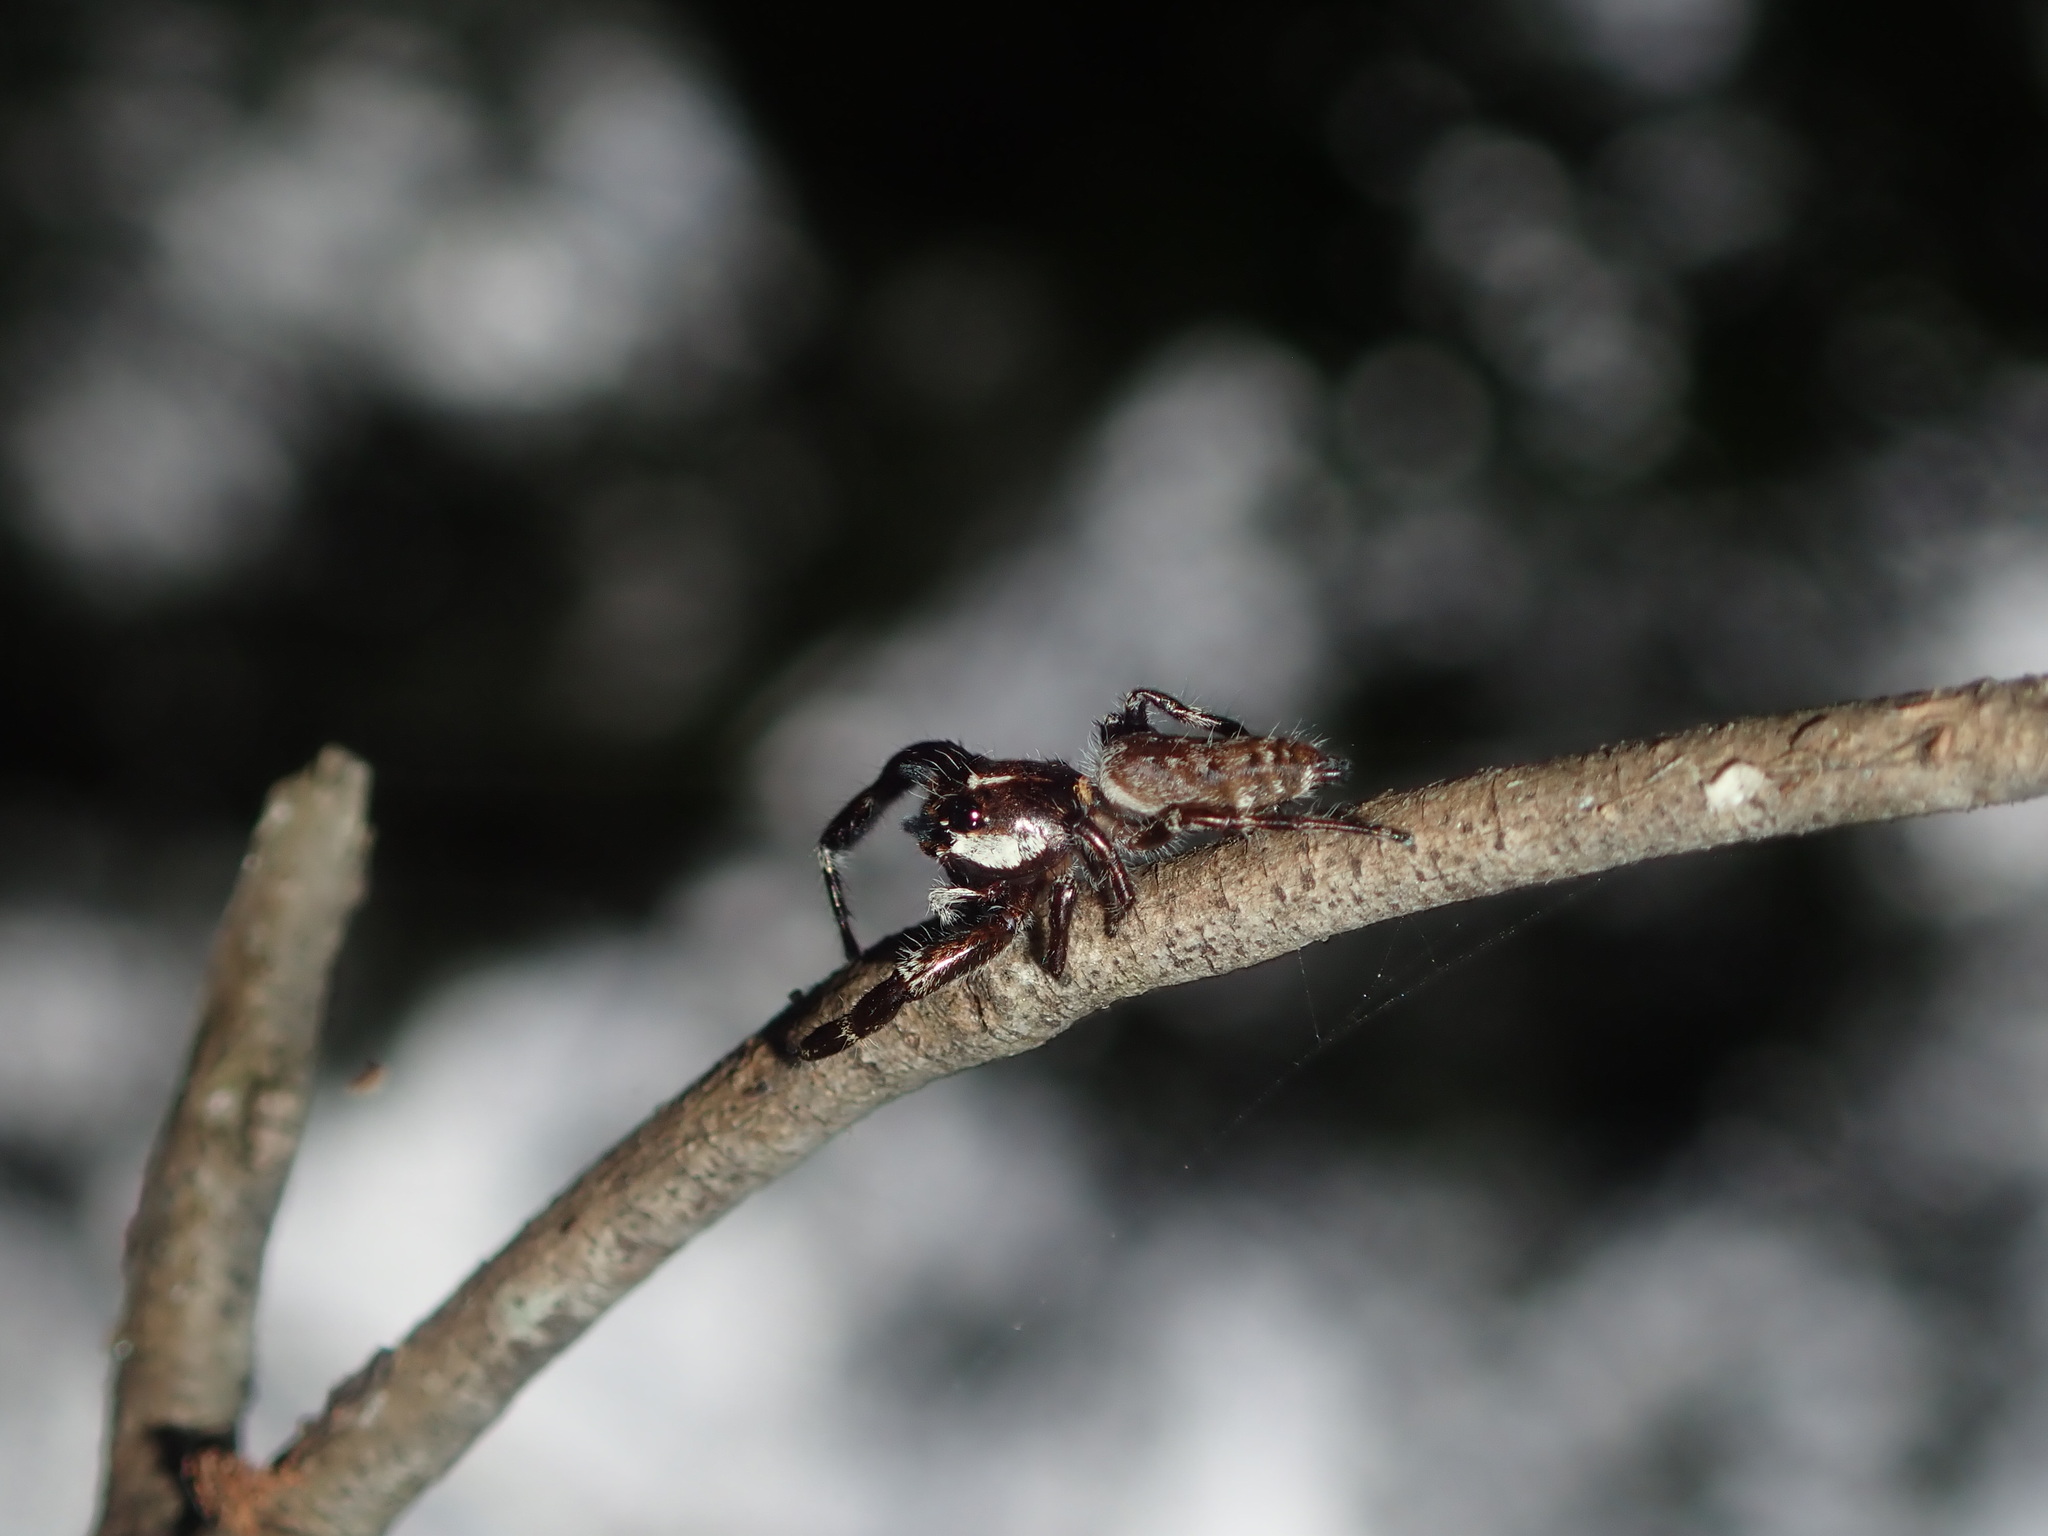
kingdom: Animalia
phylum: Arthropoda
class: Arachnida
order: Araneae
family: Salticidae
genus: Sandalodes
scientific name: Sandalodes bipenicillatus
